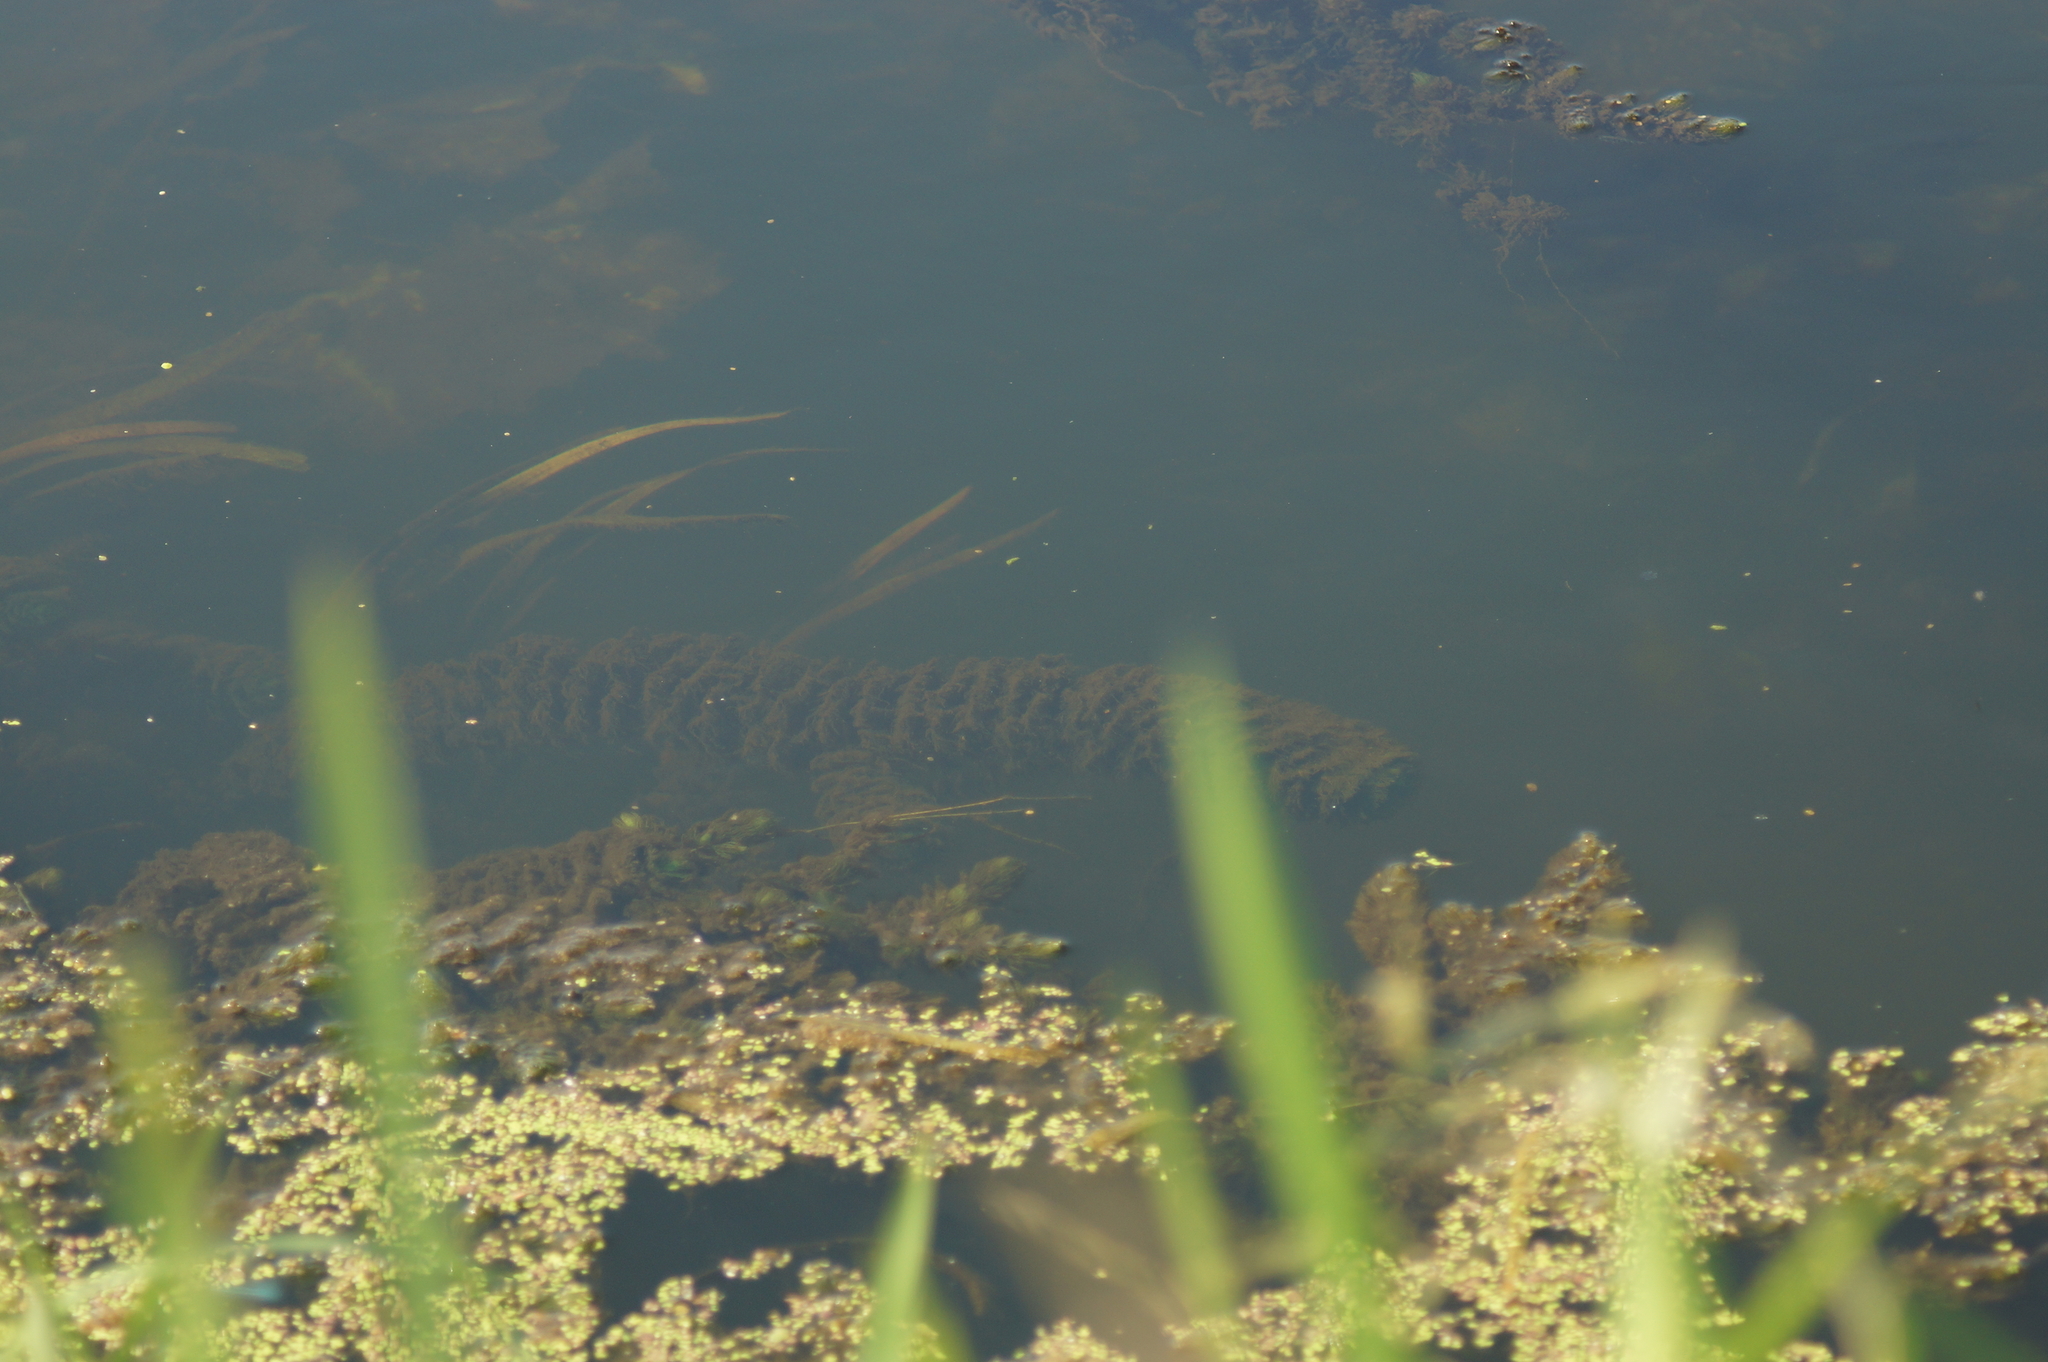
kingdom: Plantae
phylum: Tracheophyta
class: Magnoliopsida
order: Ceratophyllales
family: Ceratophyllaceae
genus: Ceratophyllum
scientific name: Ceratophyllum demersum
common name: Rigid hornwort
